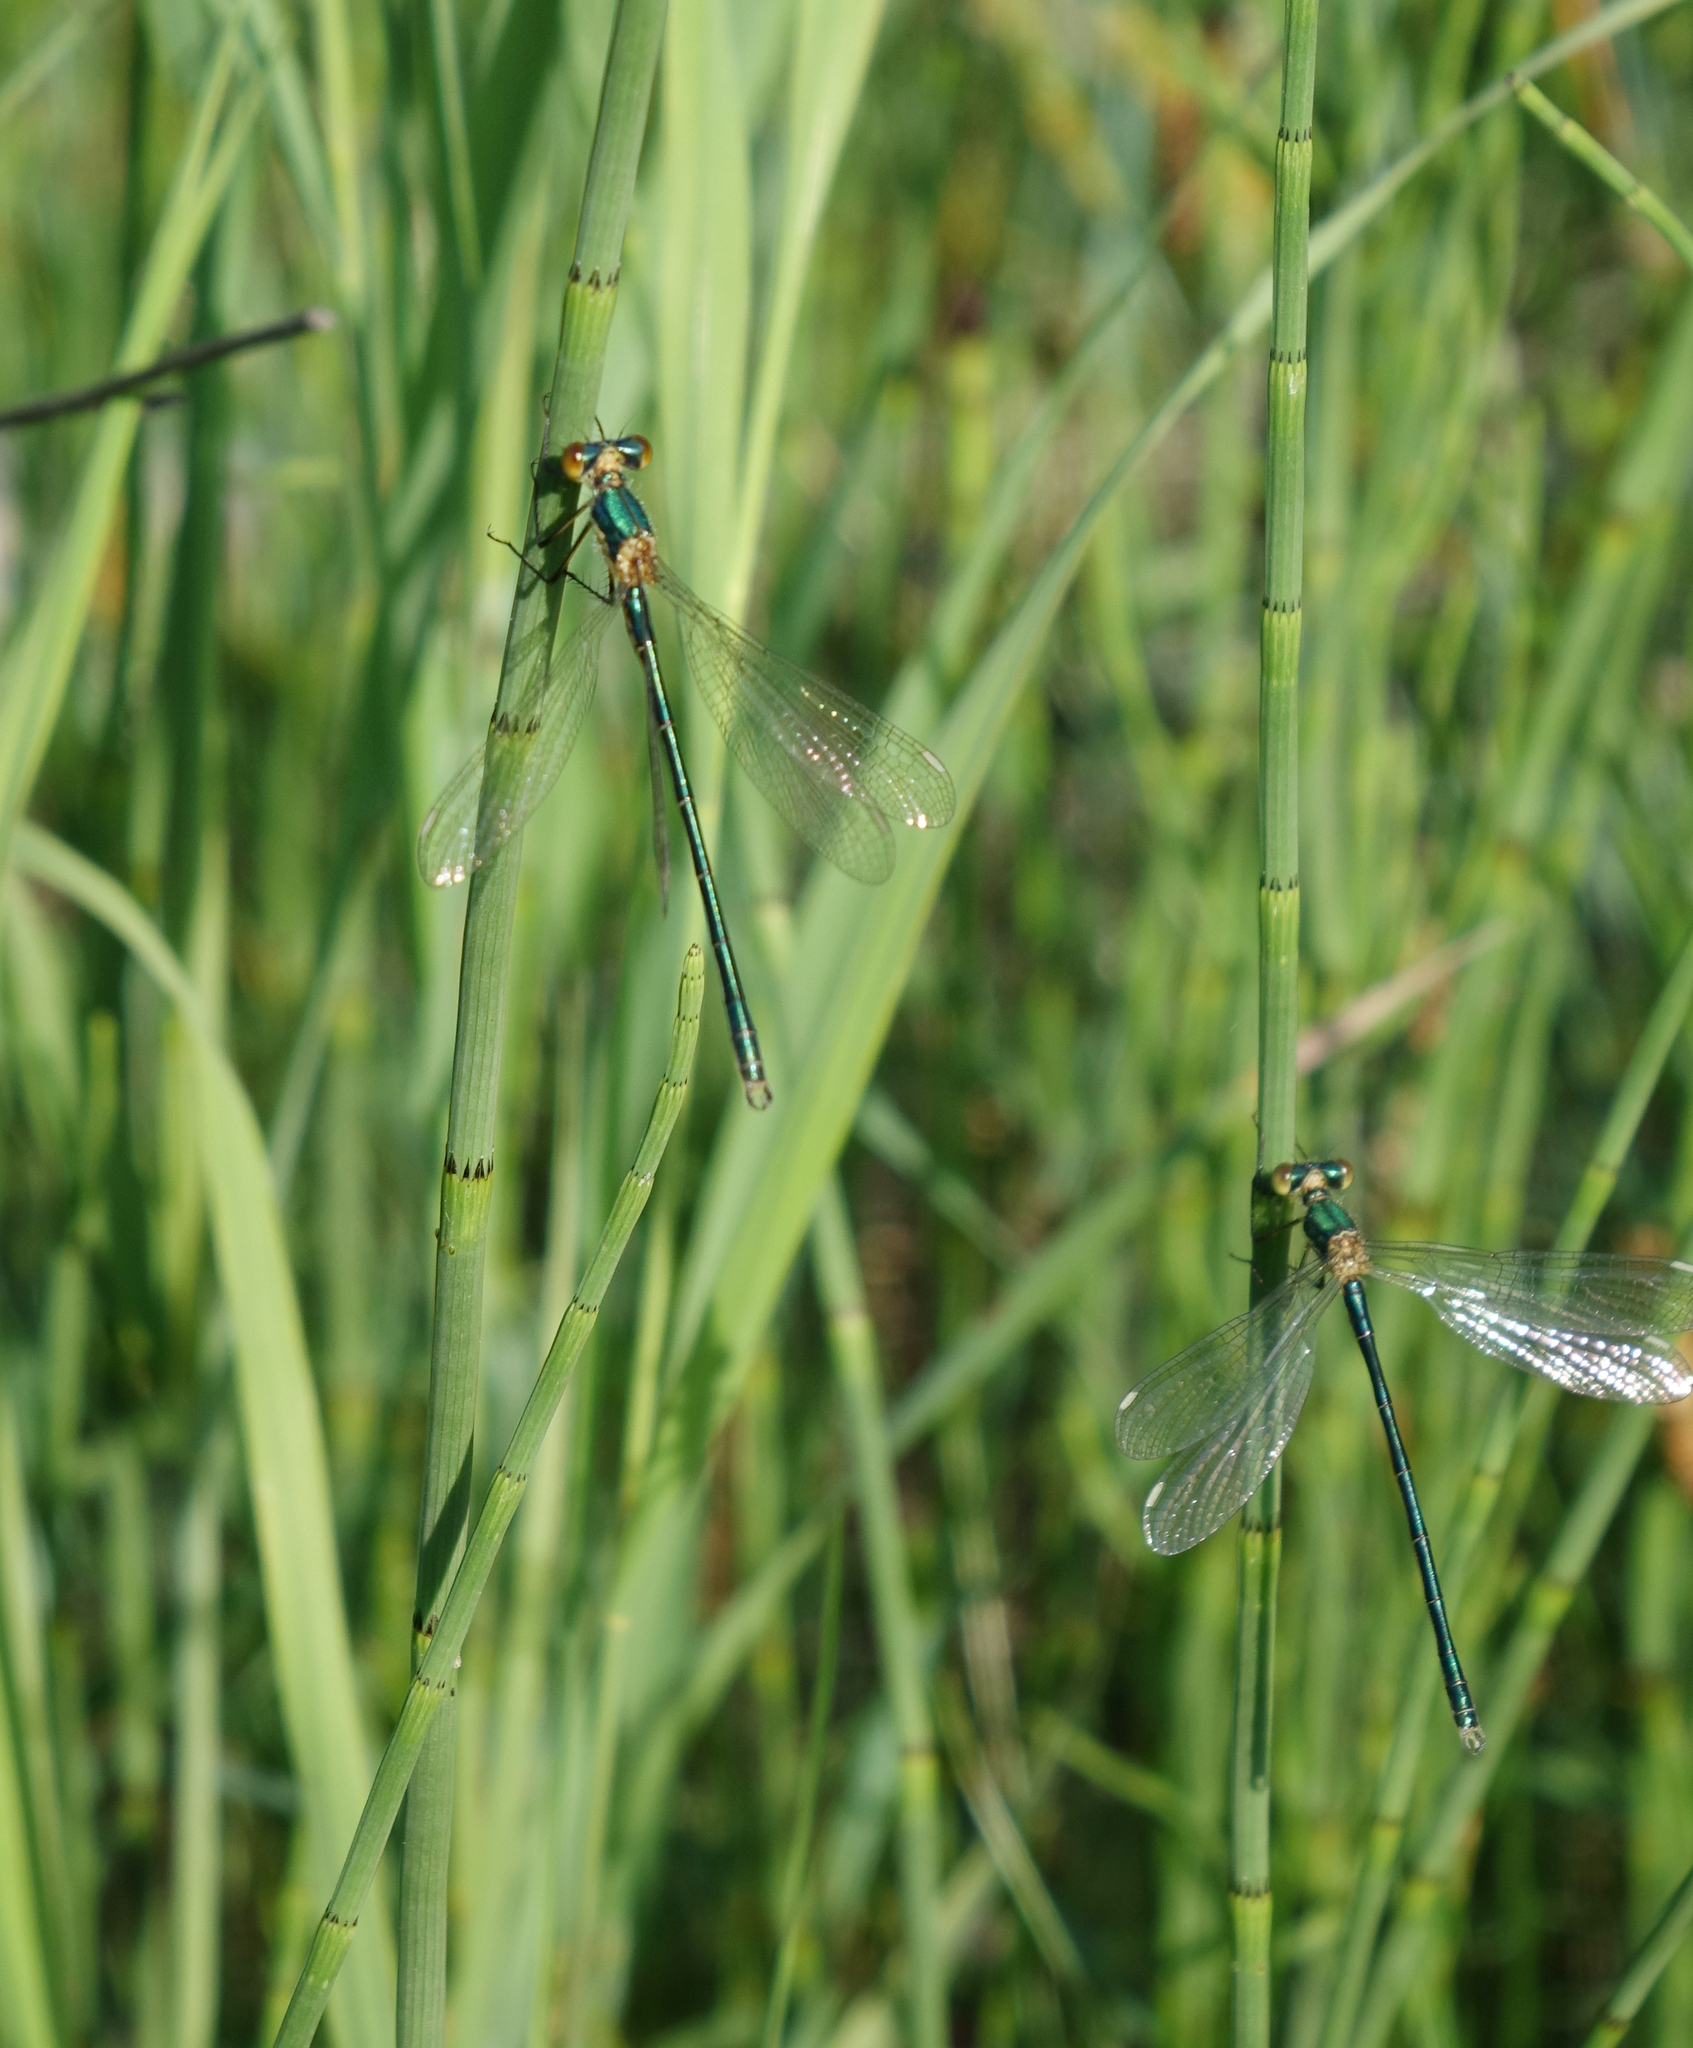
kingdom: Animalia
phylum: Arthropoda
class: Insecta
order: Odonata
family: Lestidae
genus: Lestes
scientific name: Lestes dryas
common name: Scarce emerald damselfly
